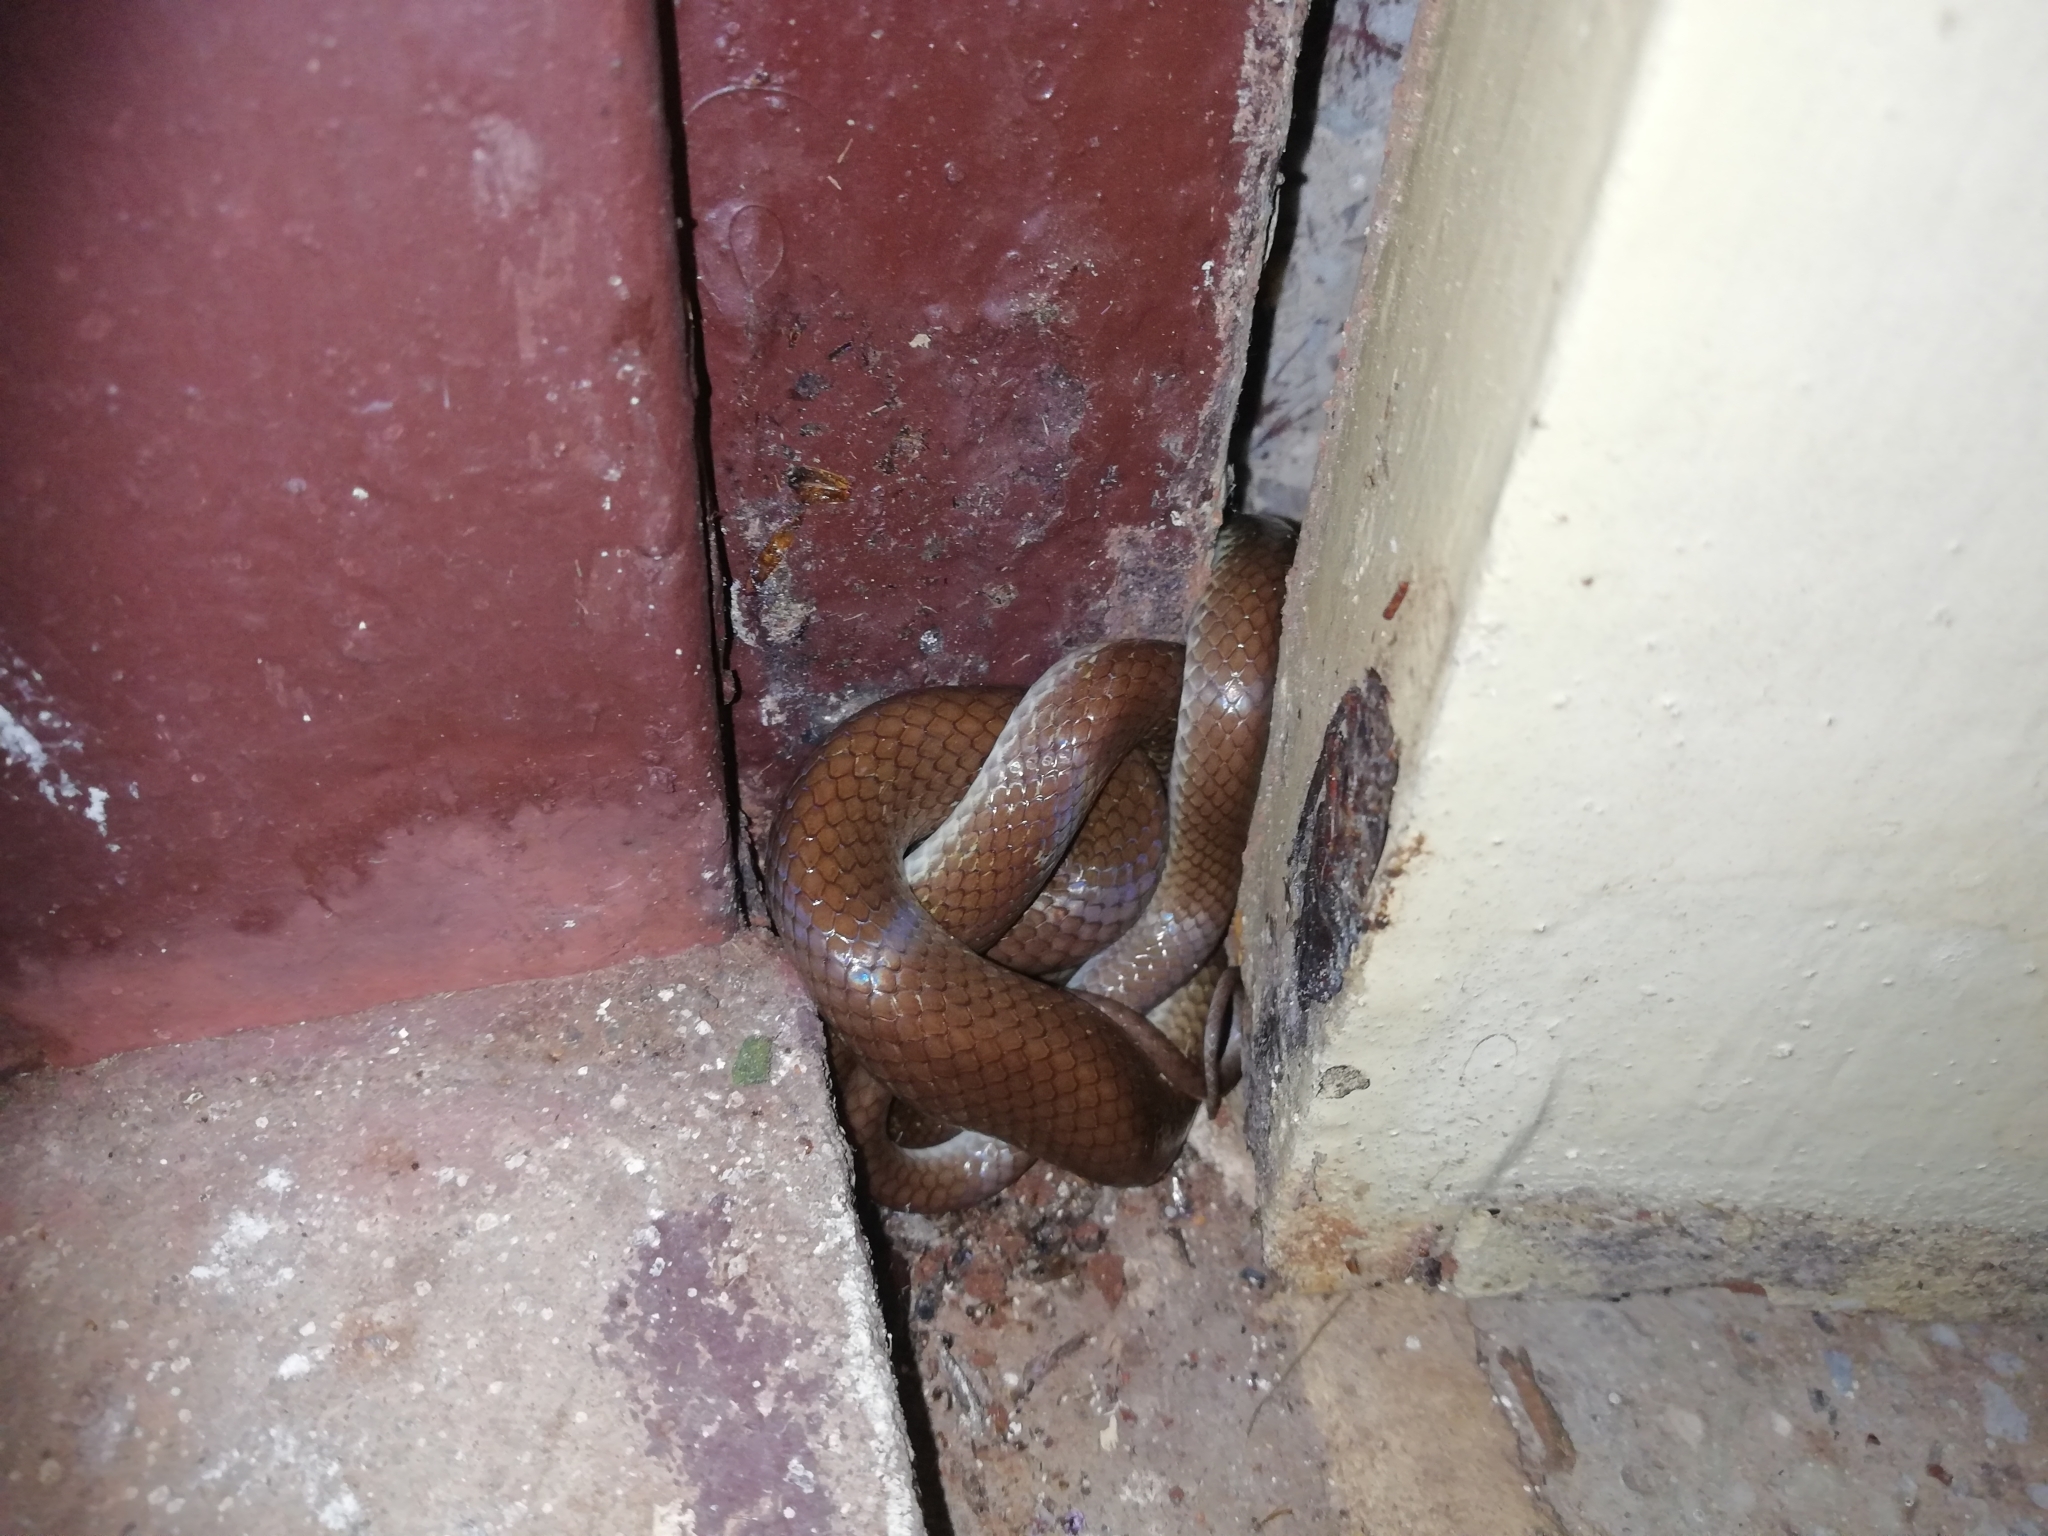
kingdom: Animalia
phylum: Chordata
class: Squamata
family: Colubridae
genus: Lycodon
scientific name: Lycodon fasciolatus
